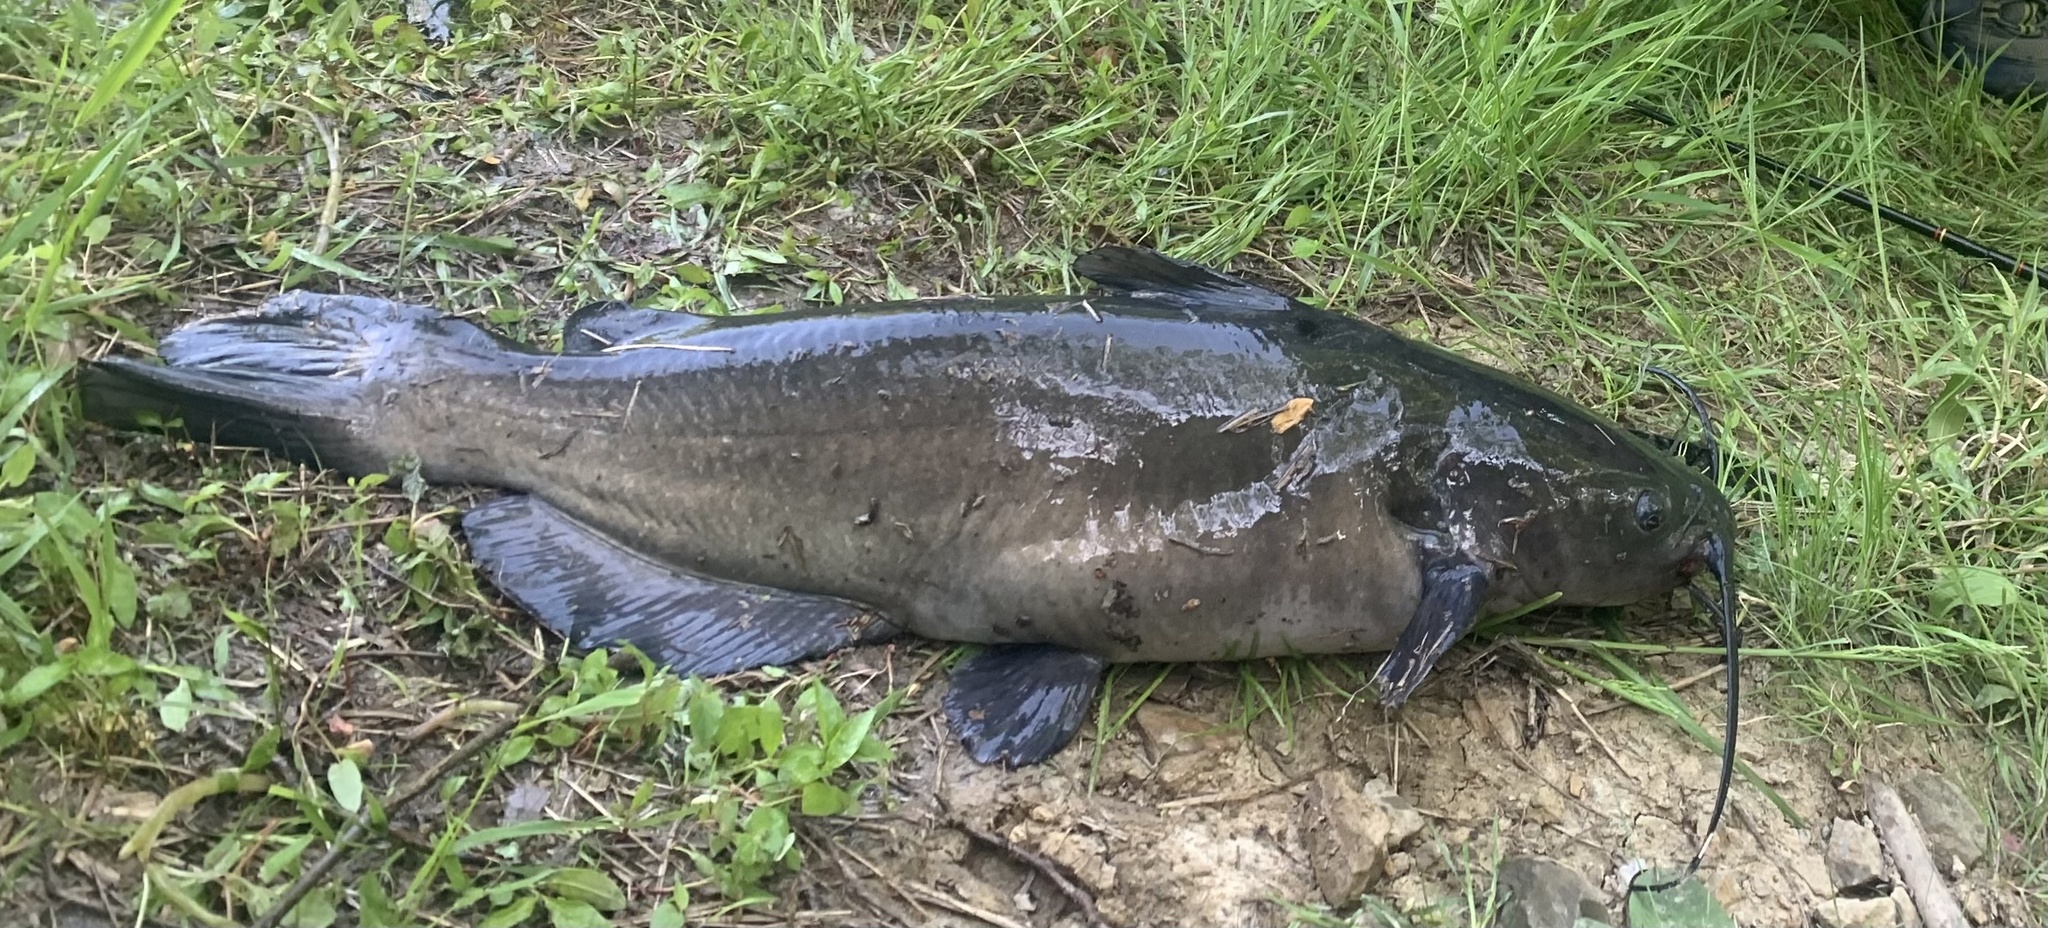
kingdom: Animalia
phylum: Chordata
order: Siluriformes
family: Ictaluridae
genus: Ictalurus
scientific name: Ictalurus punctatus
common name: Channel catfish
